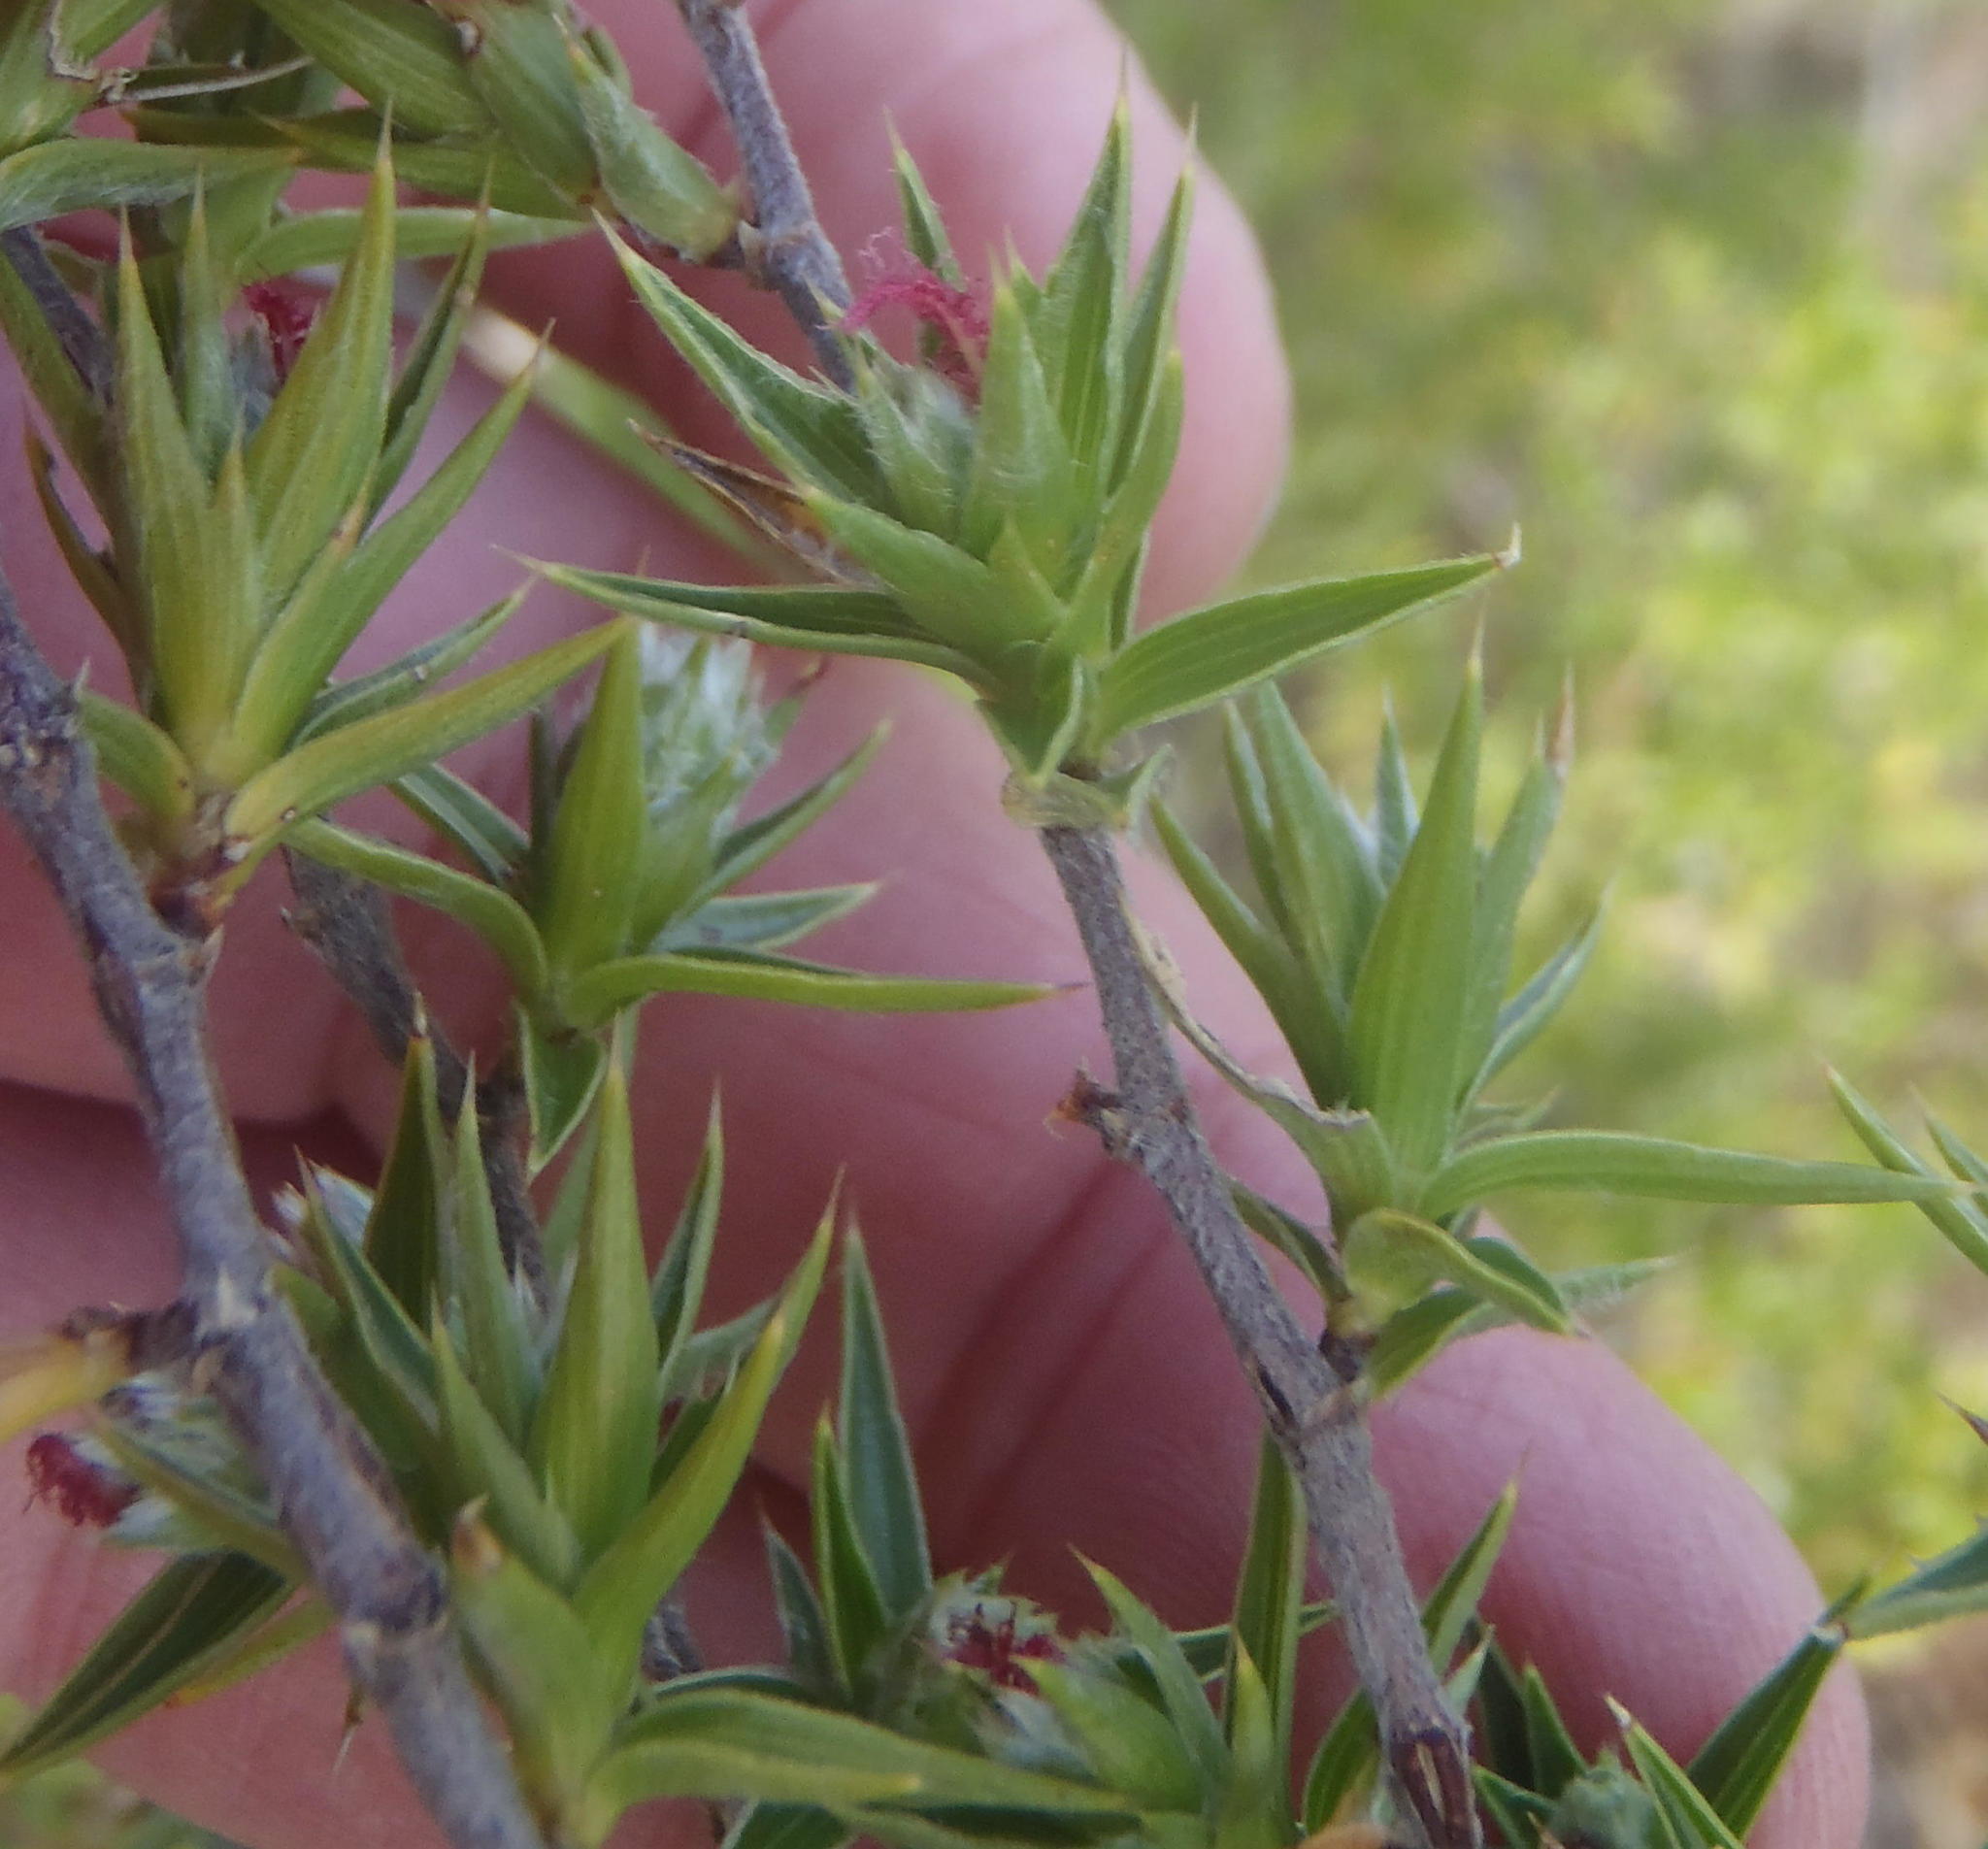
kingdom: Plantae
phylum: Tracheophyta
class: Magnoliopsida
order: Rosales
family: Rosaceae
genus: Cliffortia
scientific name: Cliffortia ruscifolia
